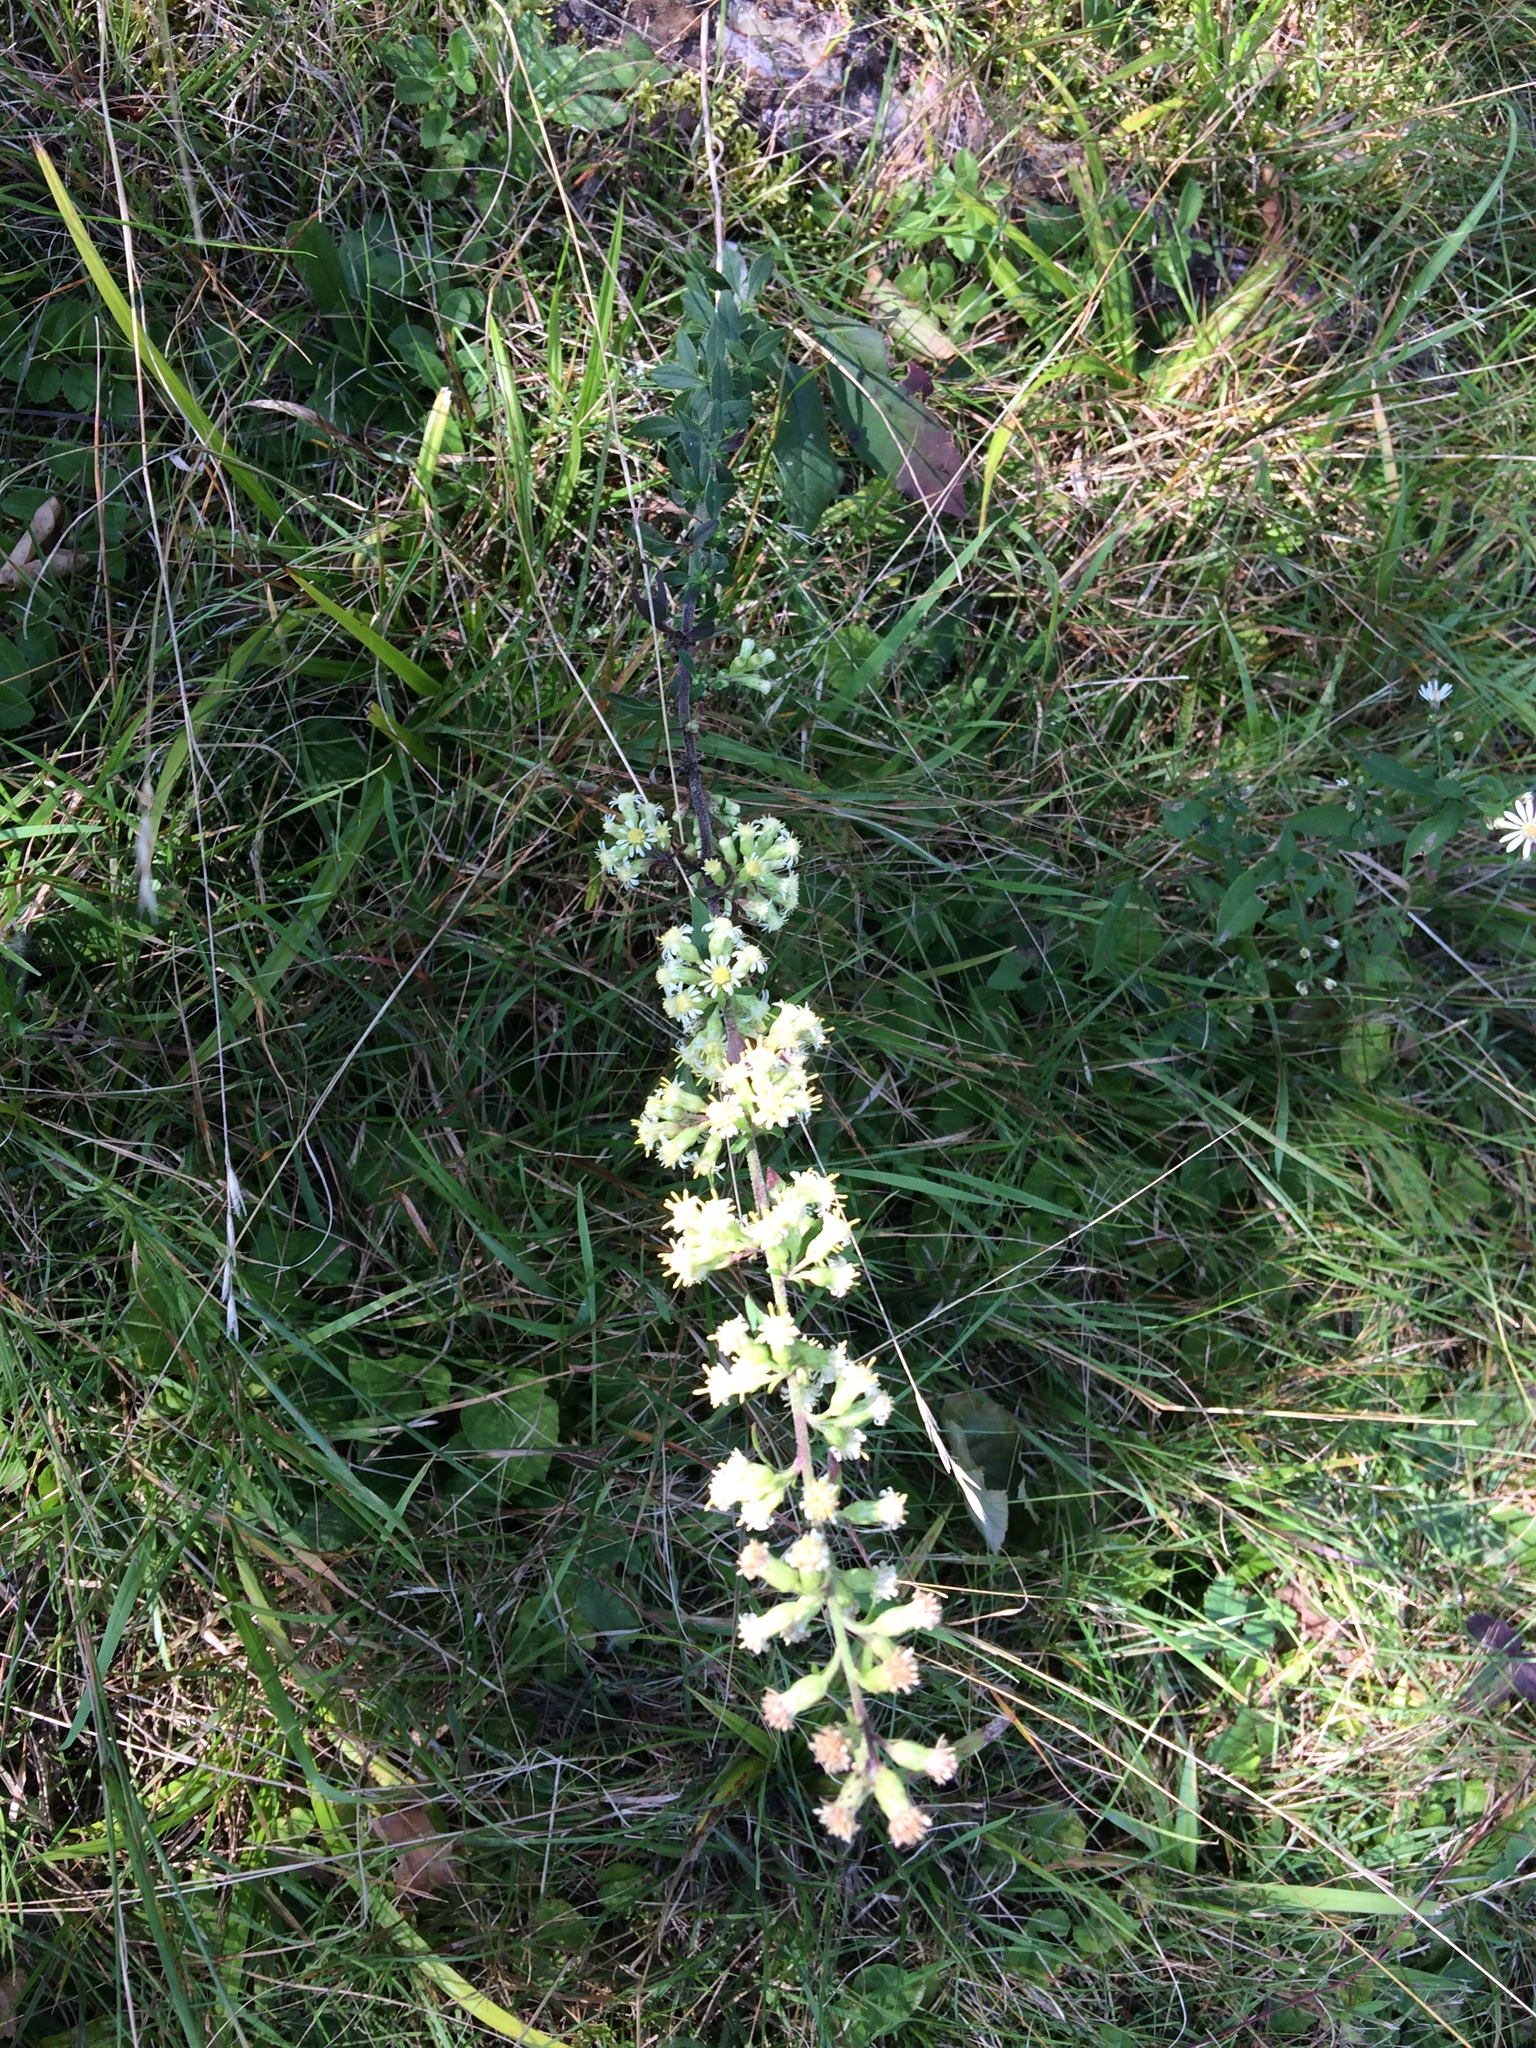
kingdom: Plantae
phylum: Tracheophyta
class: Magnoliopsida
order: Asterales
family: Asteraceae
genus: Solidago
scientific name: Solidago bicolor
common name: Silverrod
